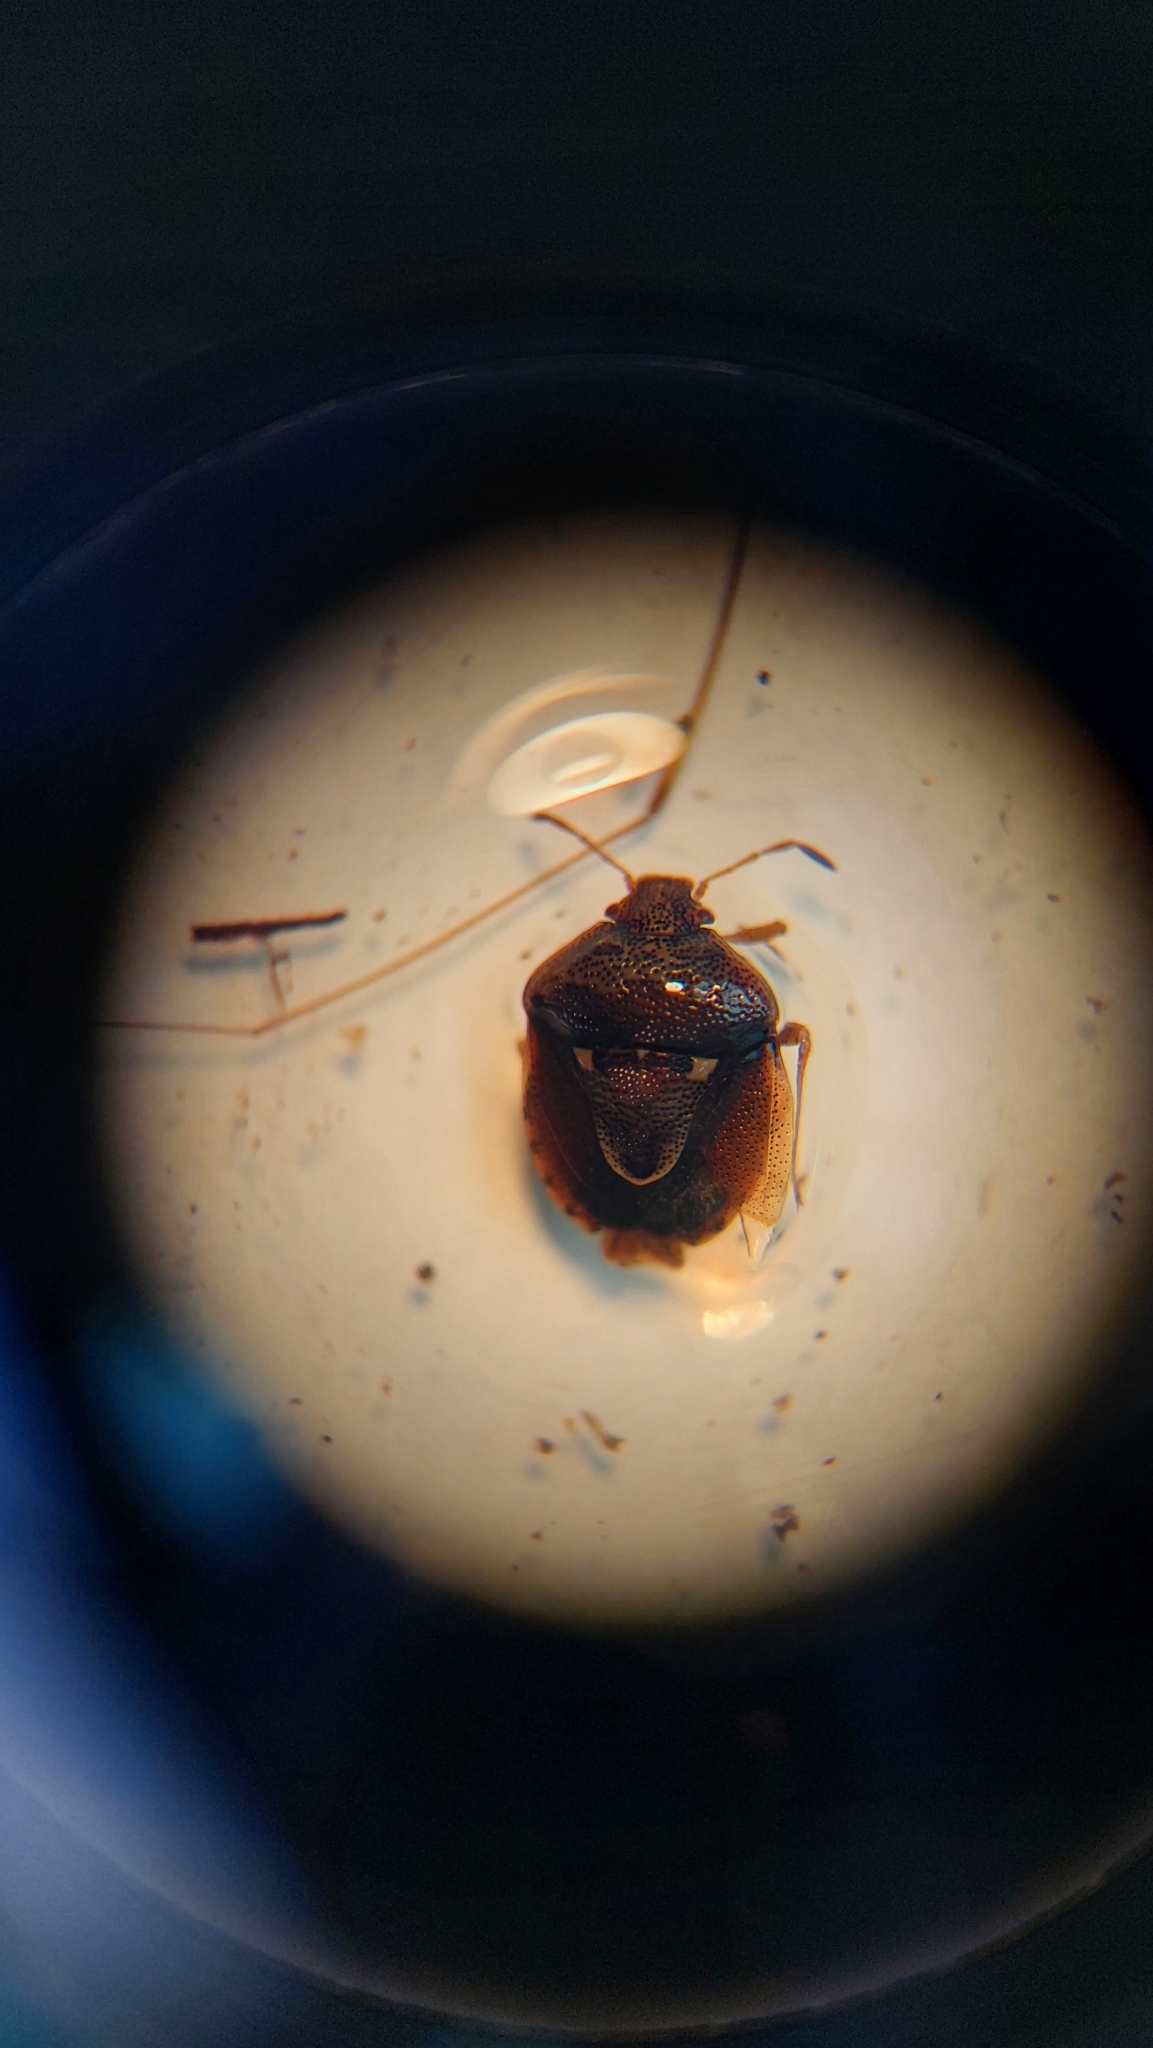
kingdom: Animalia
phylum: Arthropoda
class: Insecta
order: Hemiptera
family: Pentatomidae
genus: Stagonomus
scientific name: Stagonomus bipunctatus
